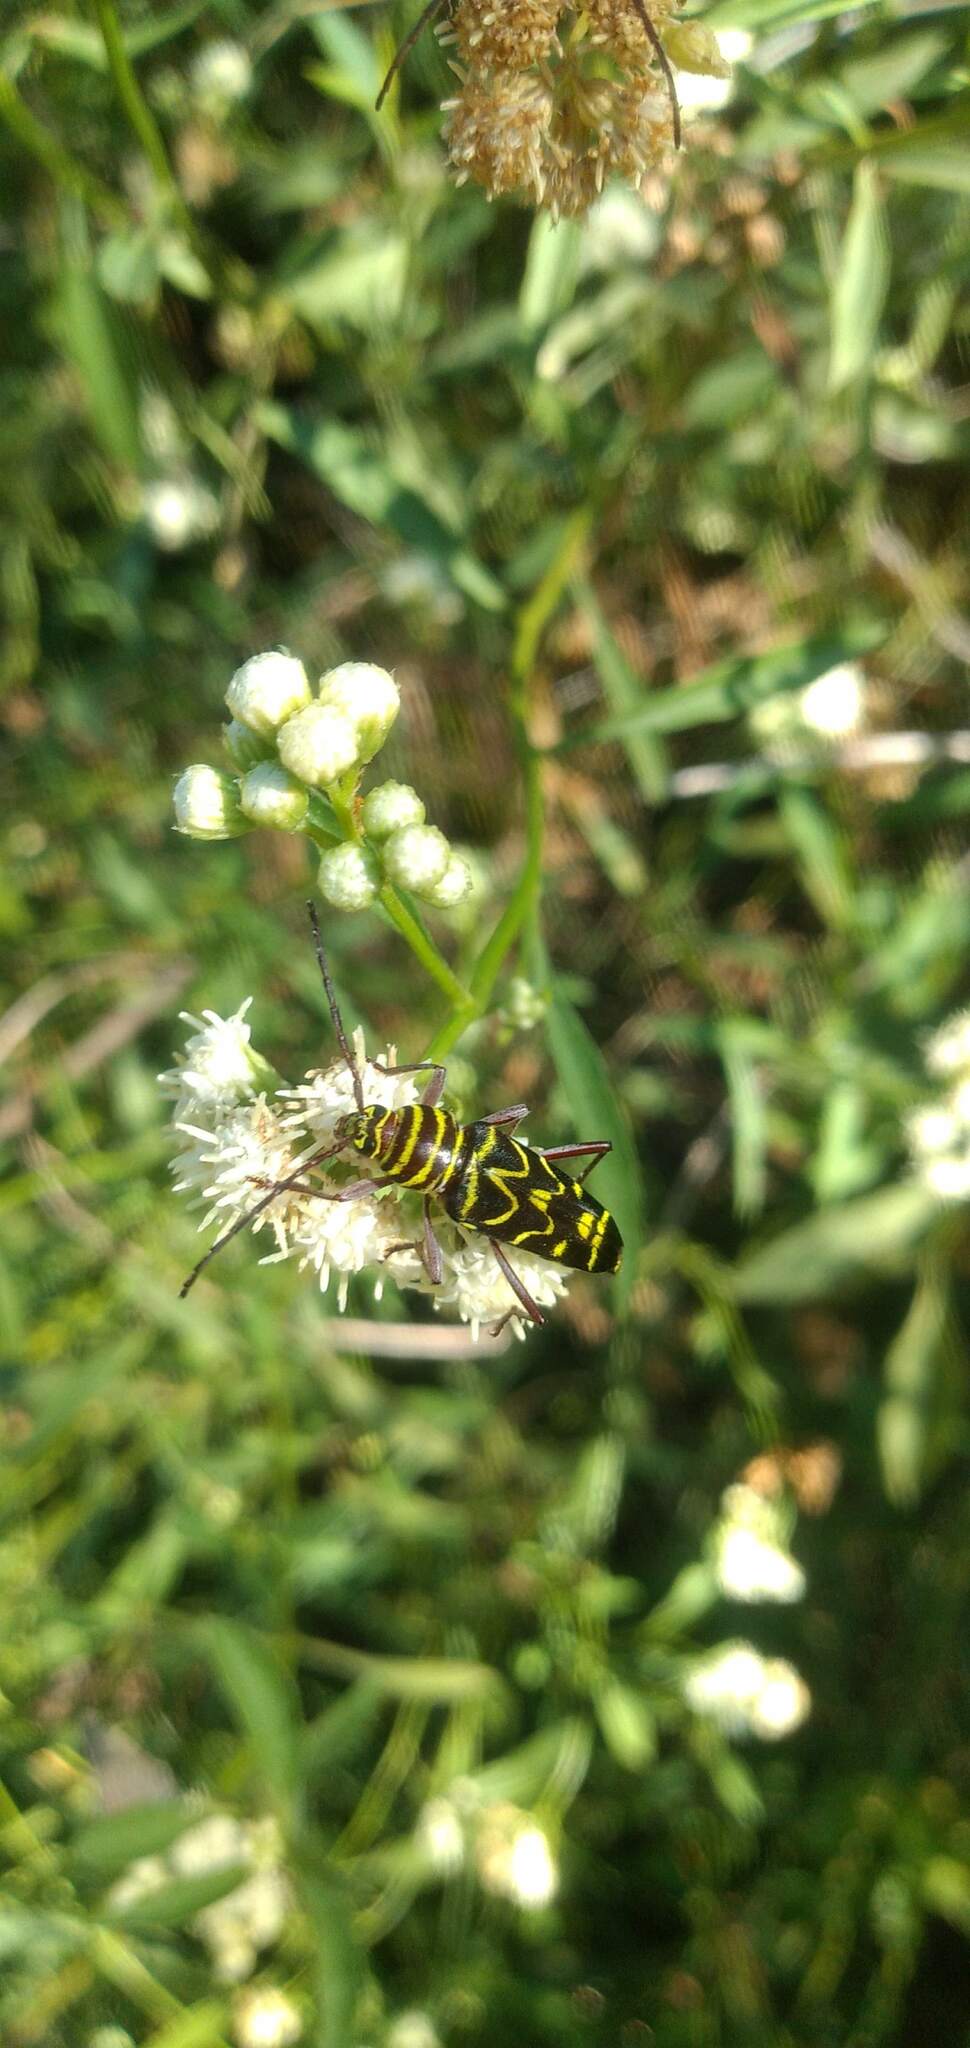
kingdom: Animalia
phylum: Arthropoda
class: Insecta
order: Coleoptera
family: Cerambycidae
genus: Megacyllene
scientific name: Megacyllene acuta
